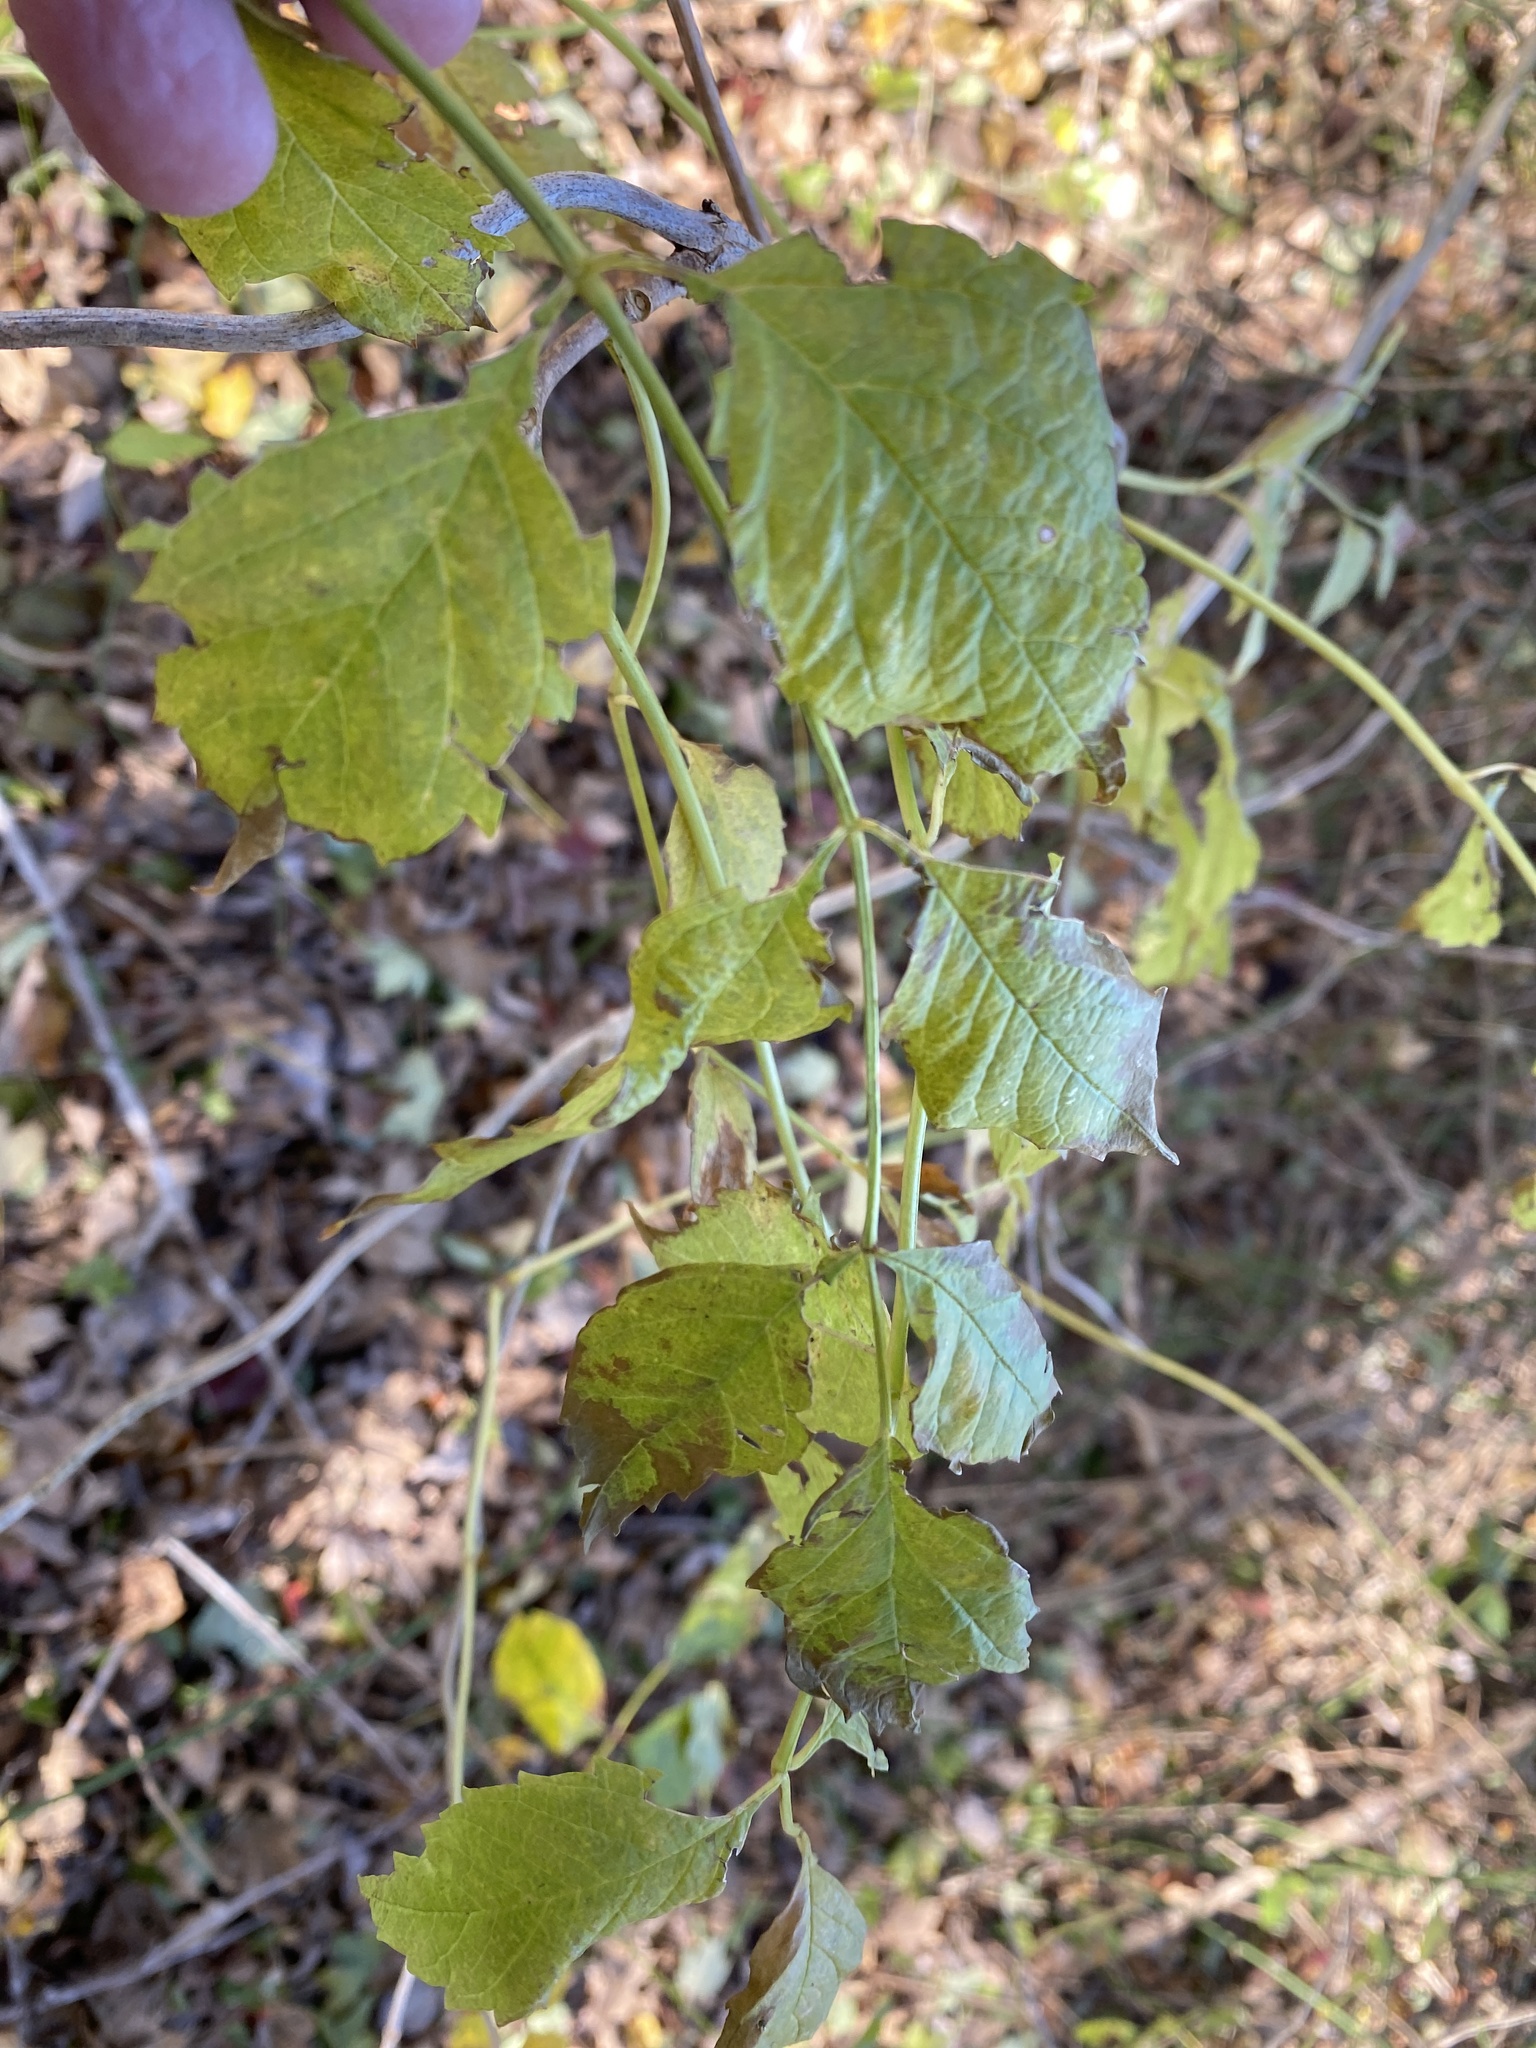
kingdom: Plantae
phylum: Tracheophyta
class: Magnoliopsida
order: Lamiales
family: Bignoniaceae
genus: Campsis
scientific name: Campsis radicans
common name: Trumpet-creeper
